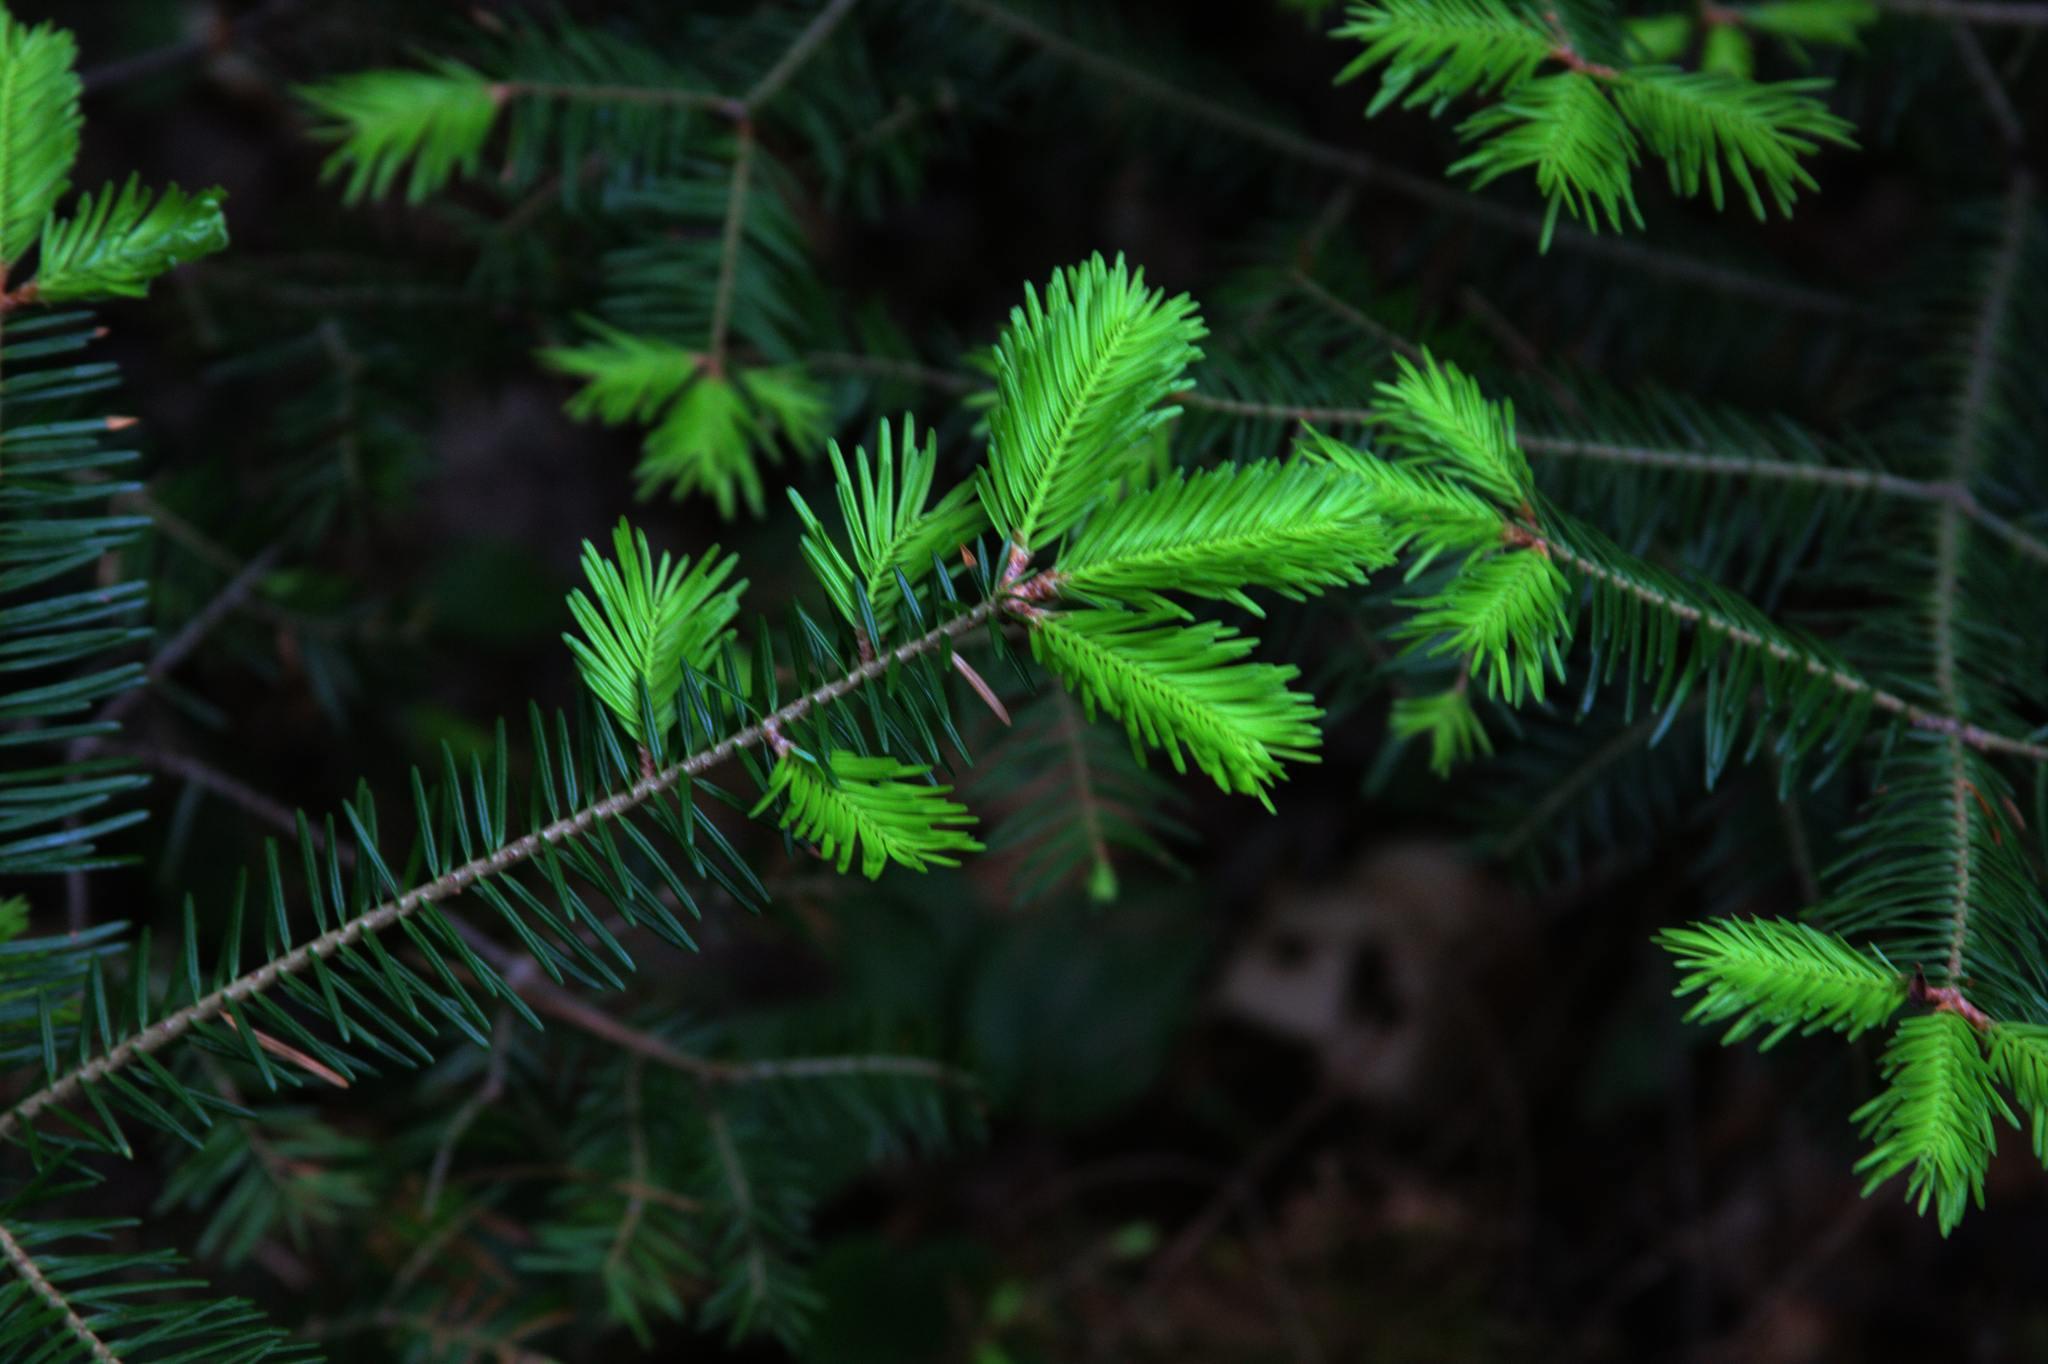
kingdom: Plantae
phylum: Tracheophyta
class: Pinopsida
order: Pinales
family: Pinaceae
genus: Abies
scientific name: Abies balsamea
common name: Balsam fir
